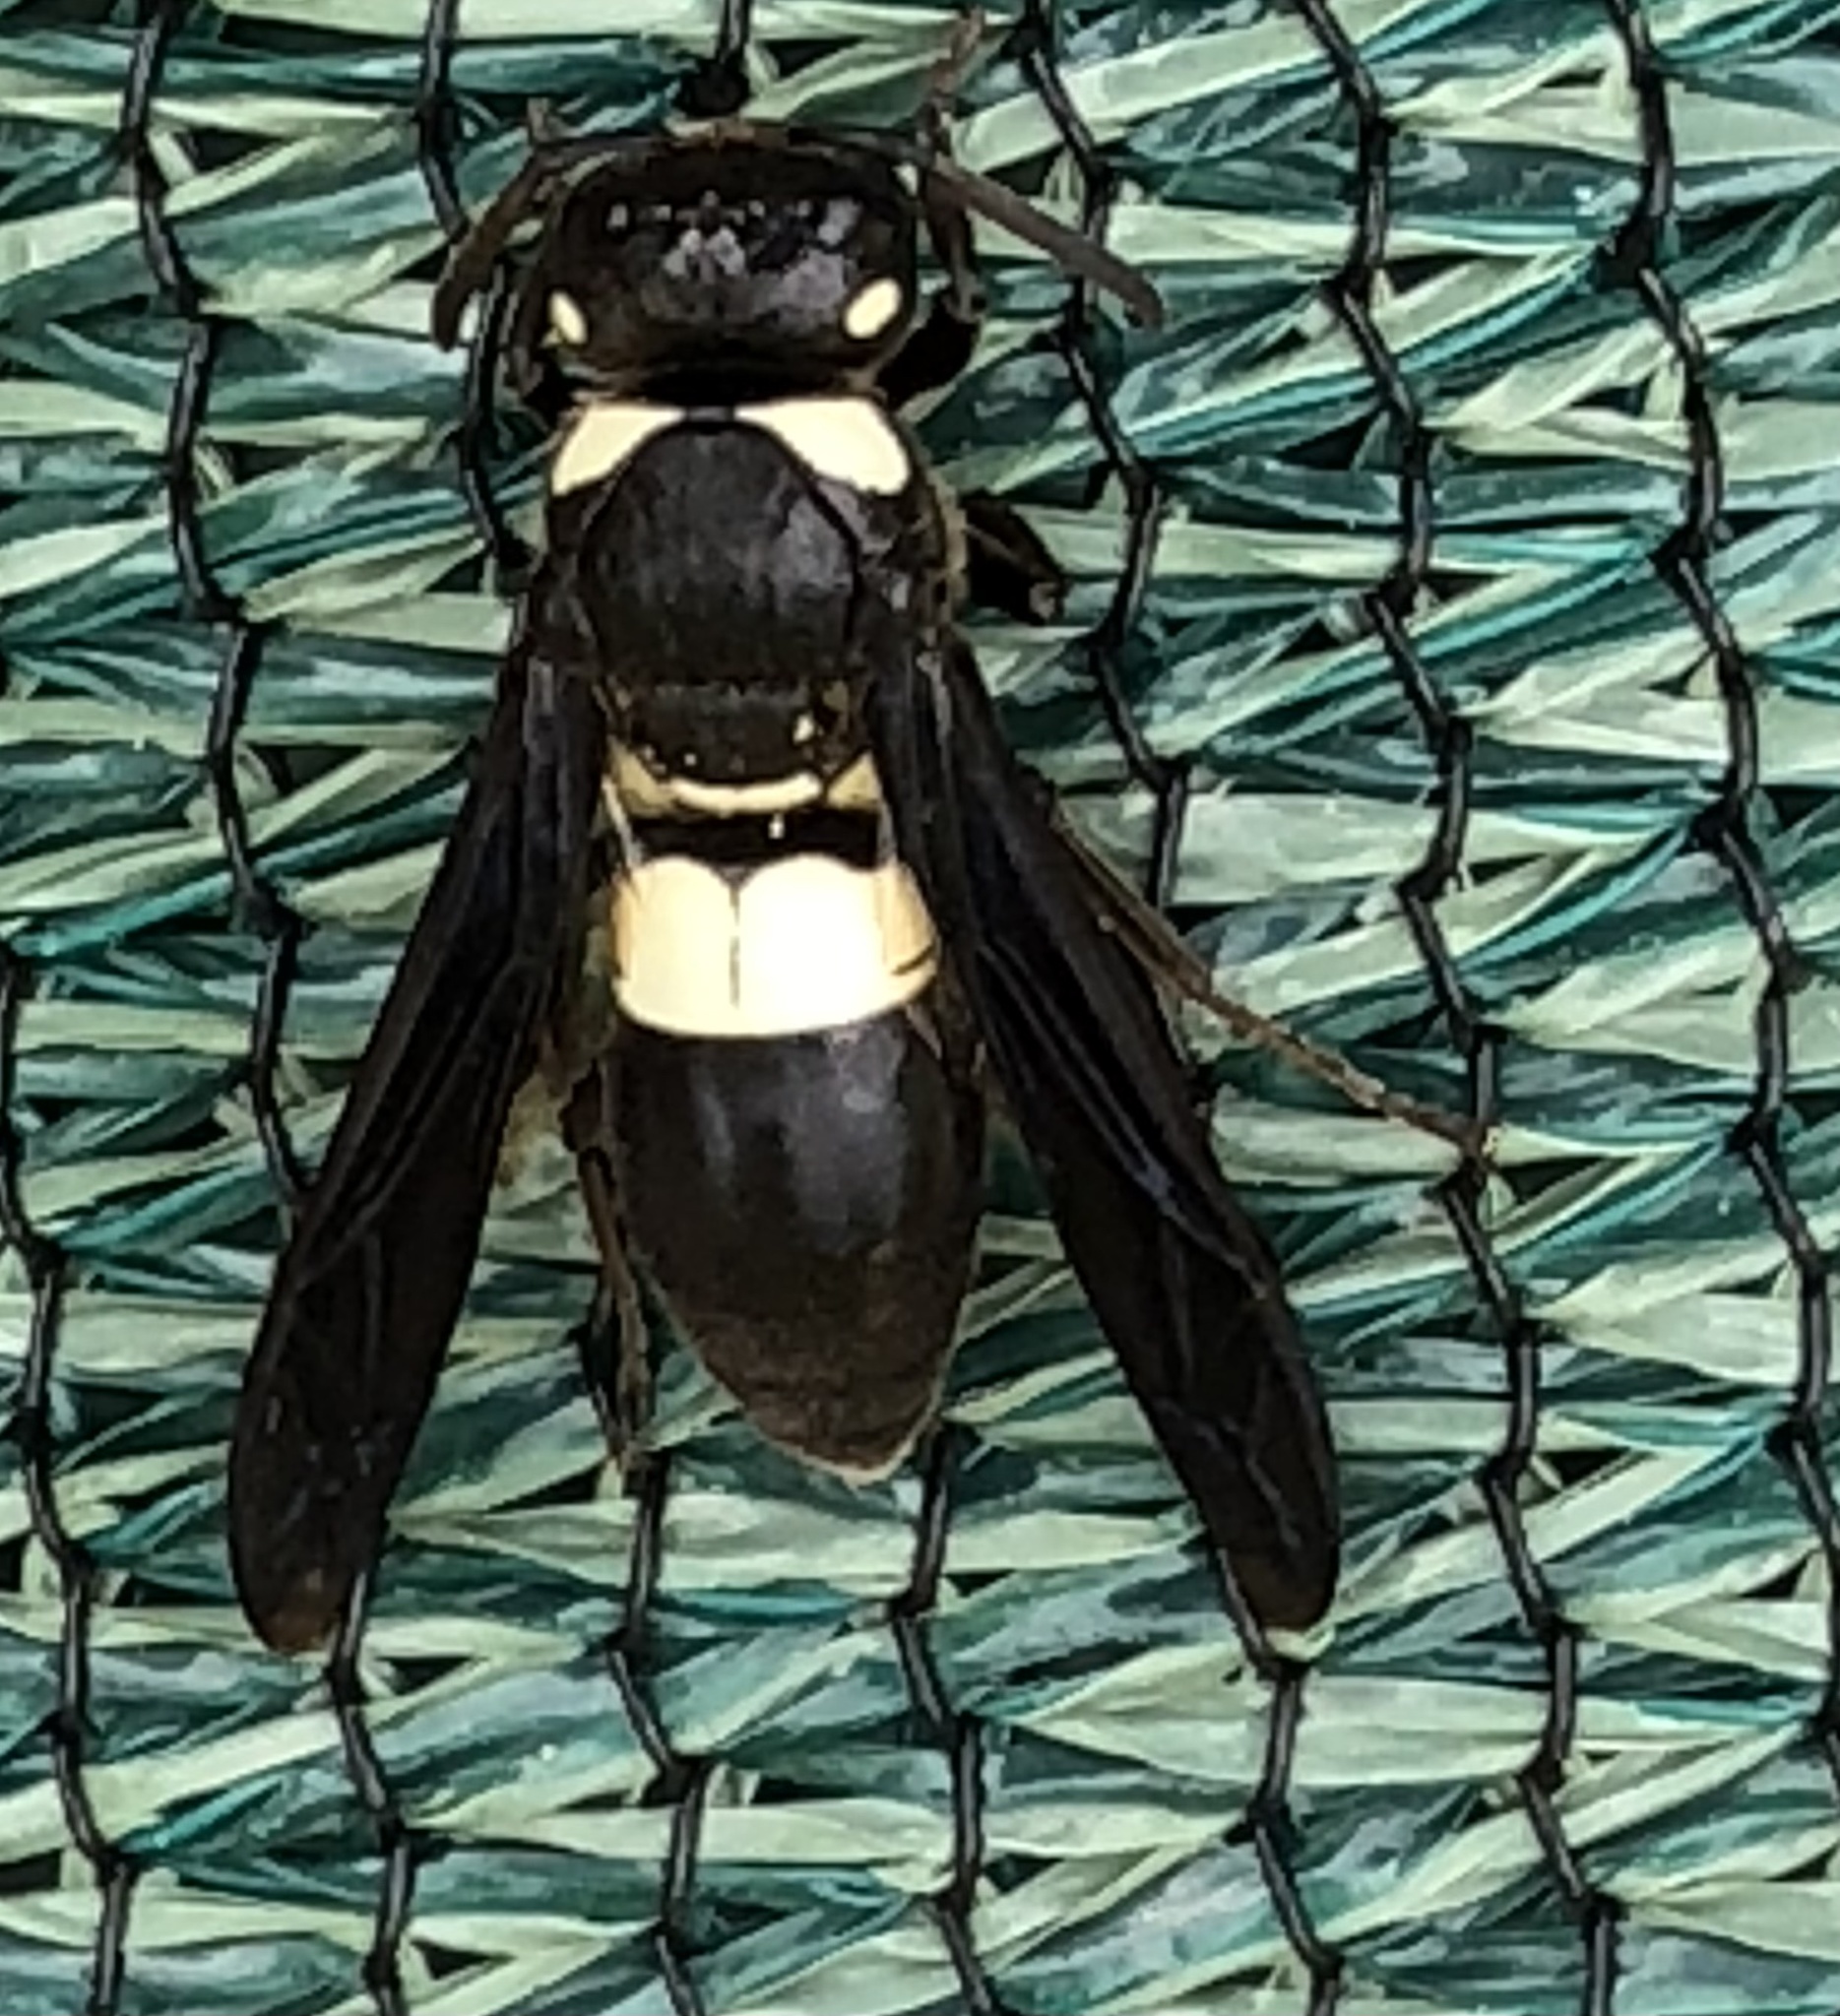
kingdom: Animalia
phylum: Arthropoda
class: Insecta
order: Hymenoptera
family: Eumenidae
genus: Euodynerus
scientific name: Euodynerus bidens
